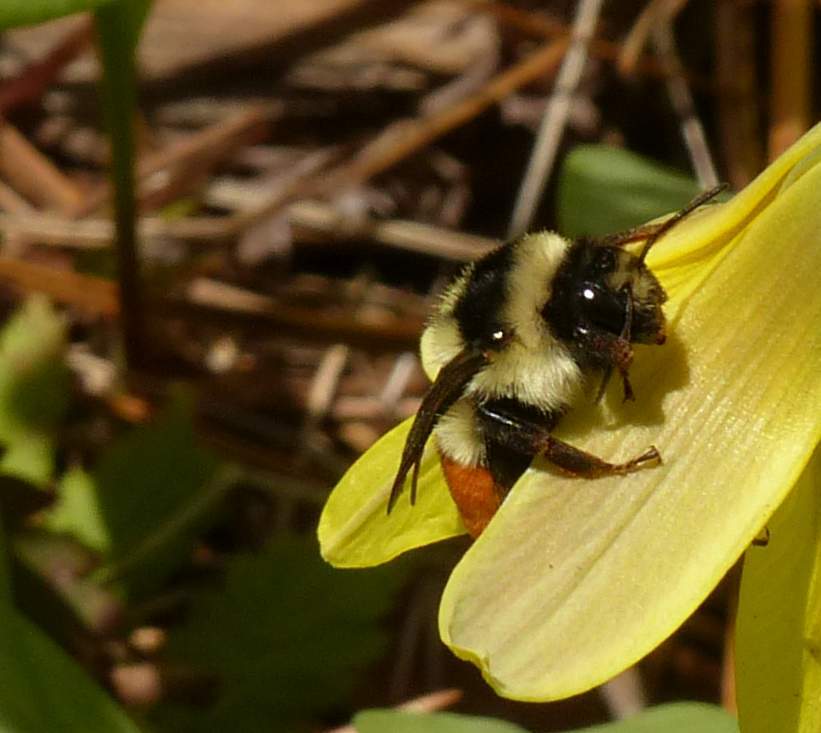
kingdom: Animalia
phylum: Arthropoda
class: Insecta
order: Hymenoptera
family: Apidae
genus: Bombus
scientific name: Bombus ternarius
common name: Tri-colored bumble bee
